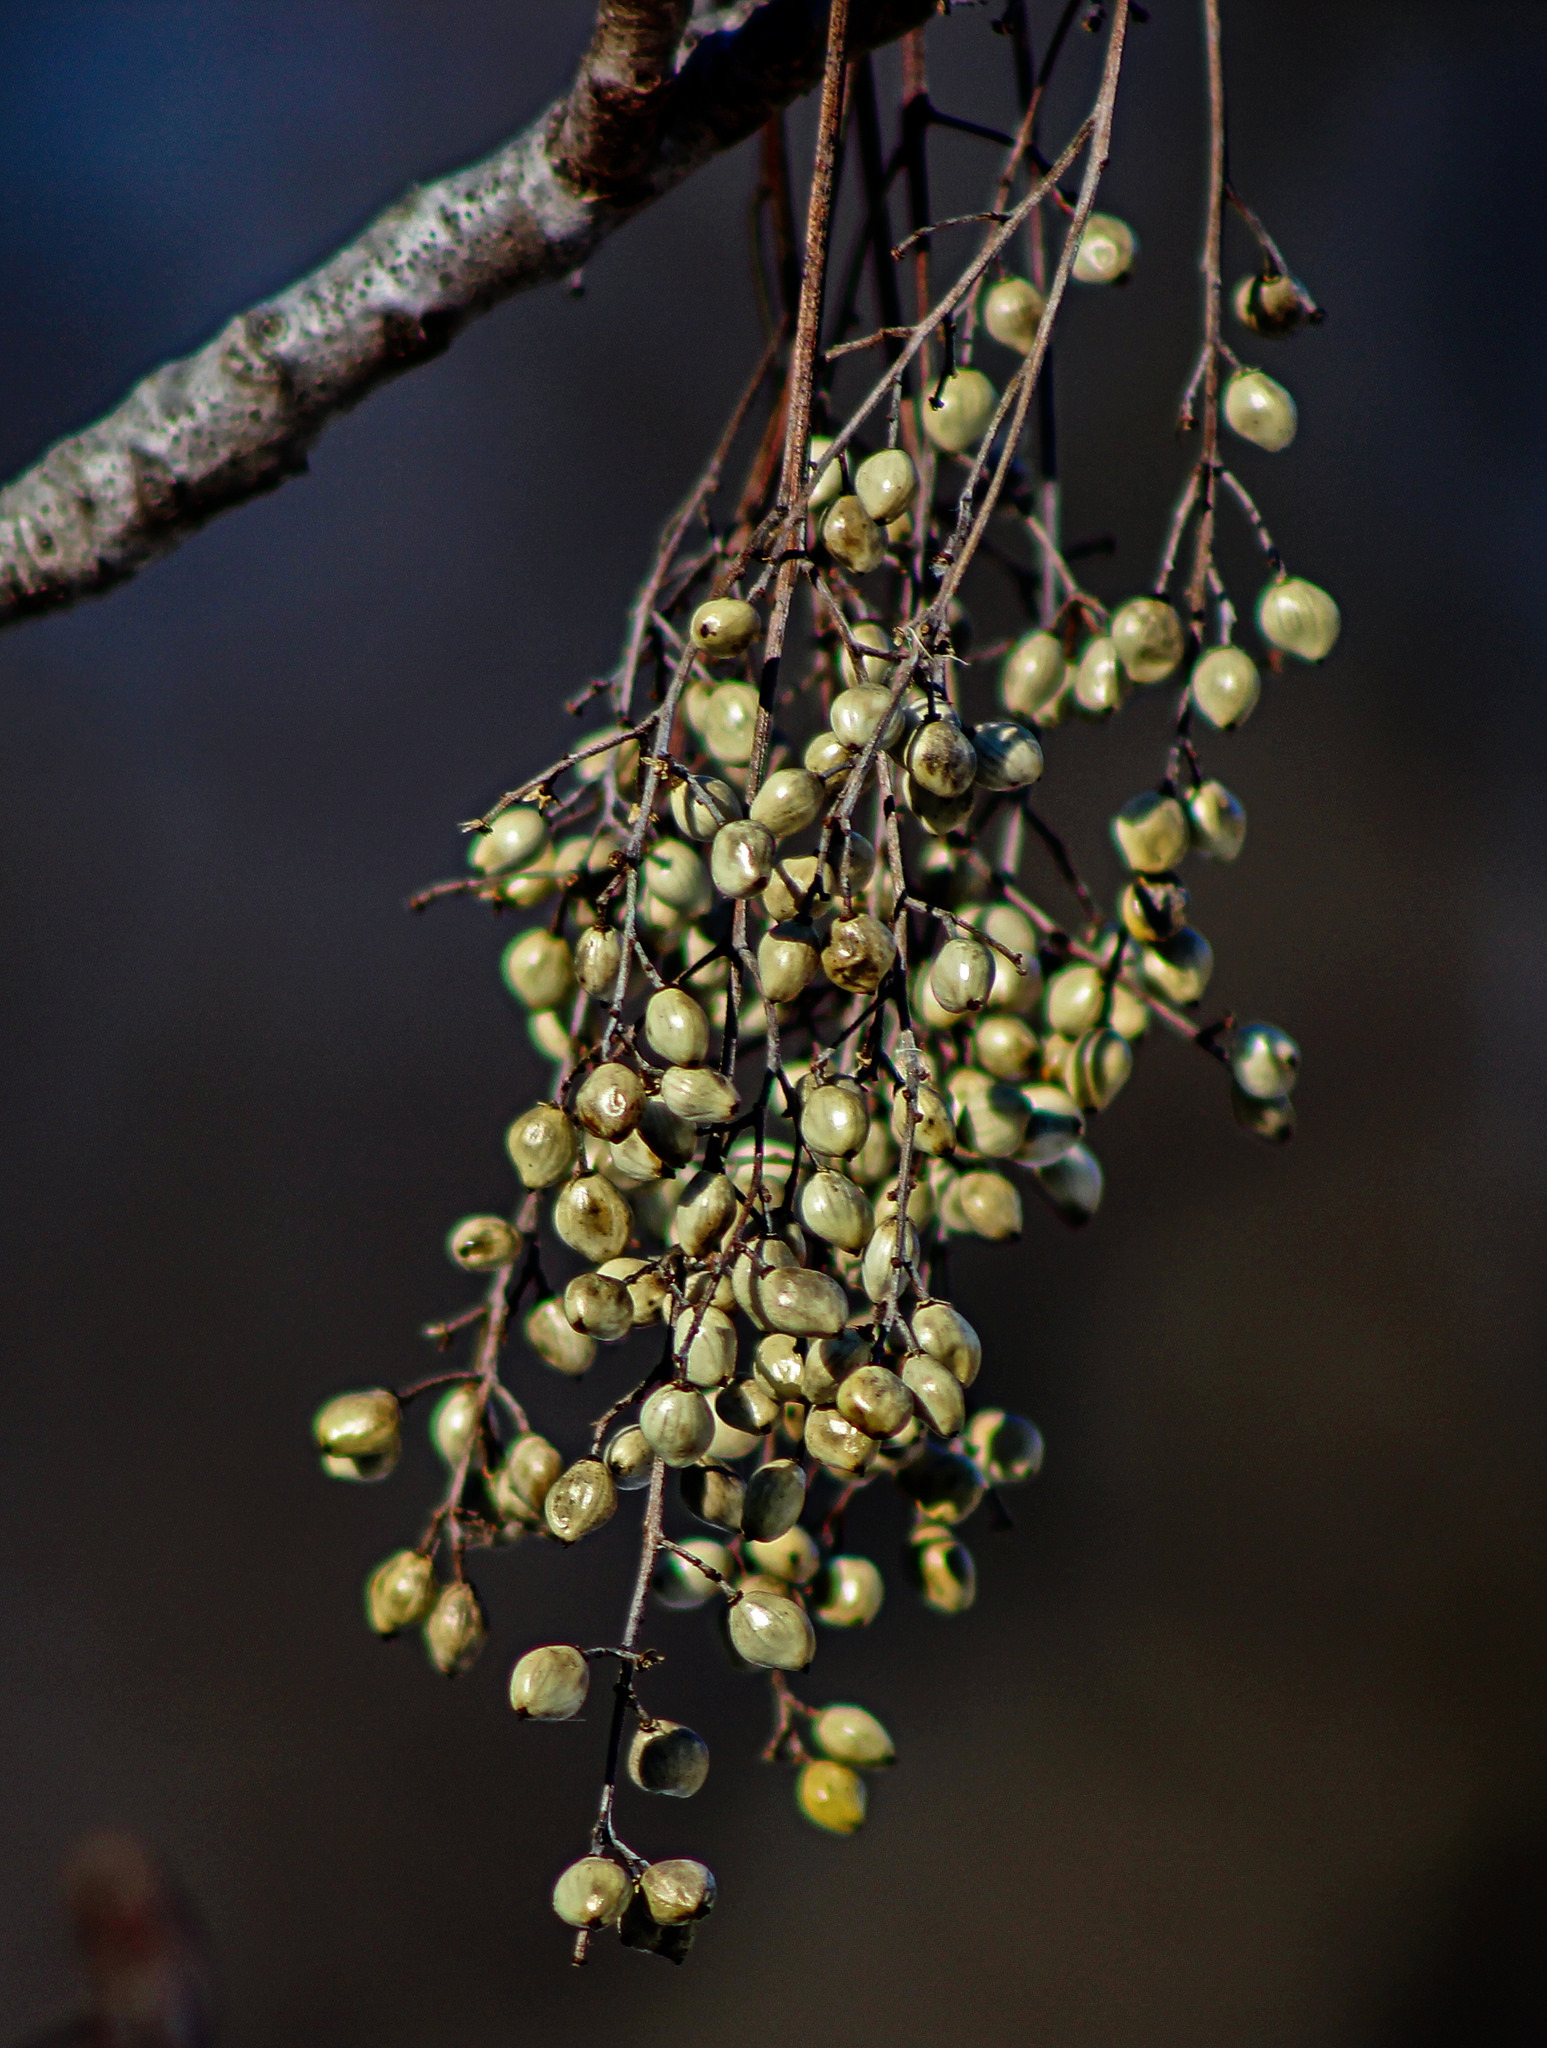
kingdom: Plantae
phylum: Tracheophyta
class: Magnoliopsida
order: Sapindales
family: Anacardiaceae
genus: Toxicodendron
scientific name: Toxicodendron vernix
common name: Poison sumac
